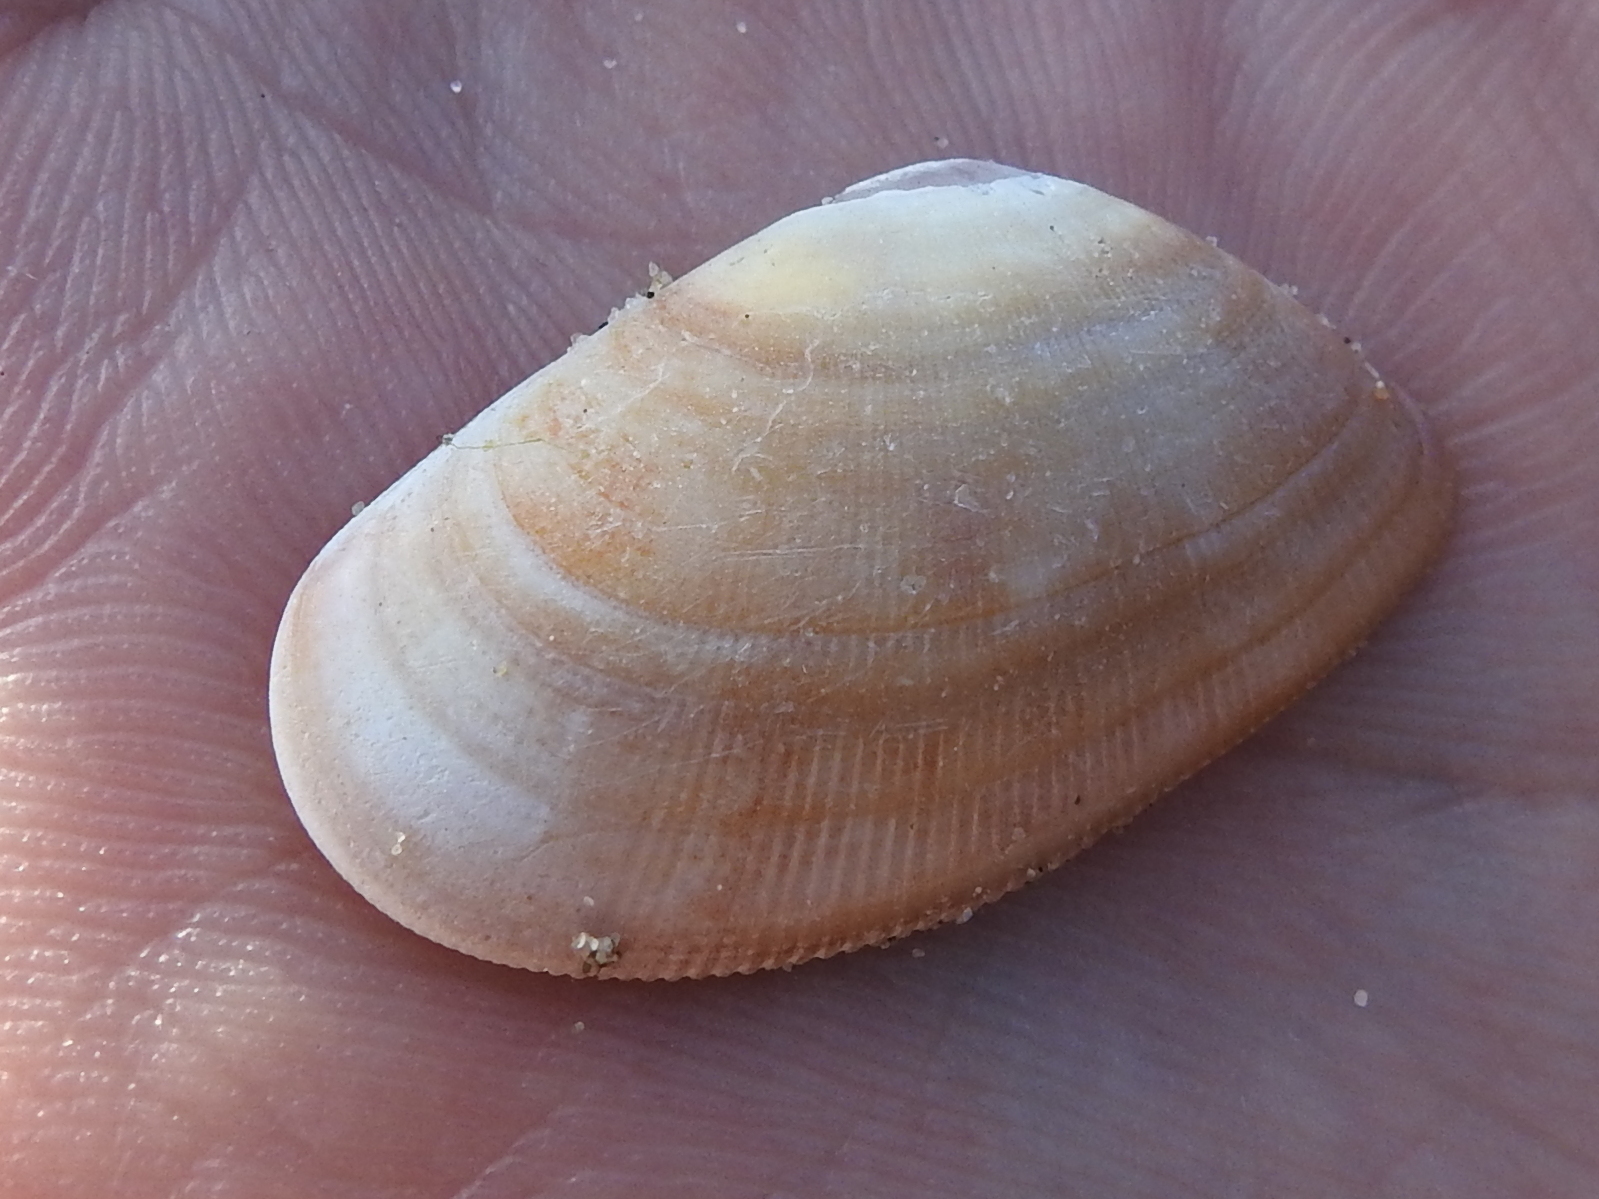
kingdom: Animalia
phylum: Mollusca
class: Bivalvia
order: Cardiida
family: Donacidae
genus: Donax
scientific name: Donax vittatus
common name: Banded wedge-shell
